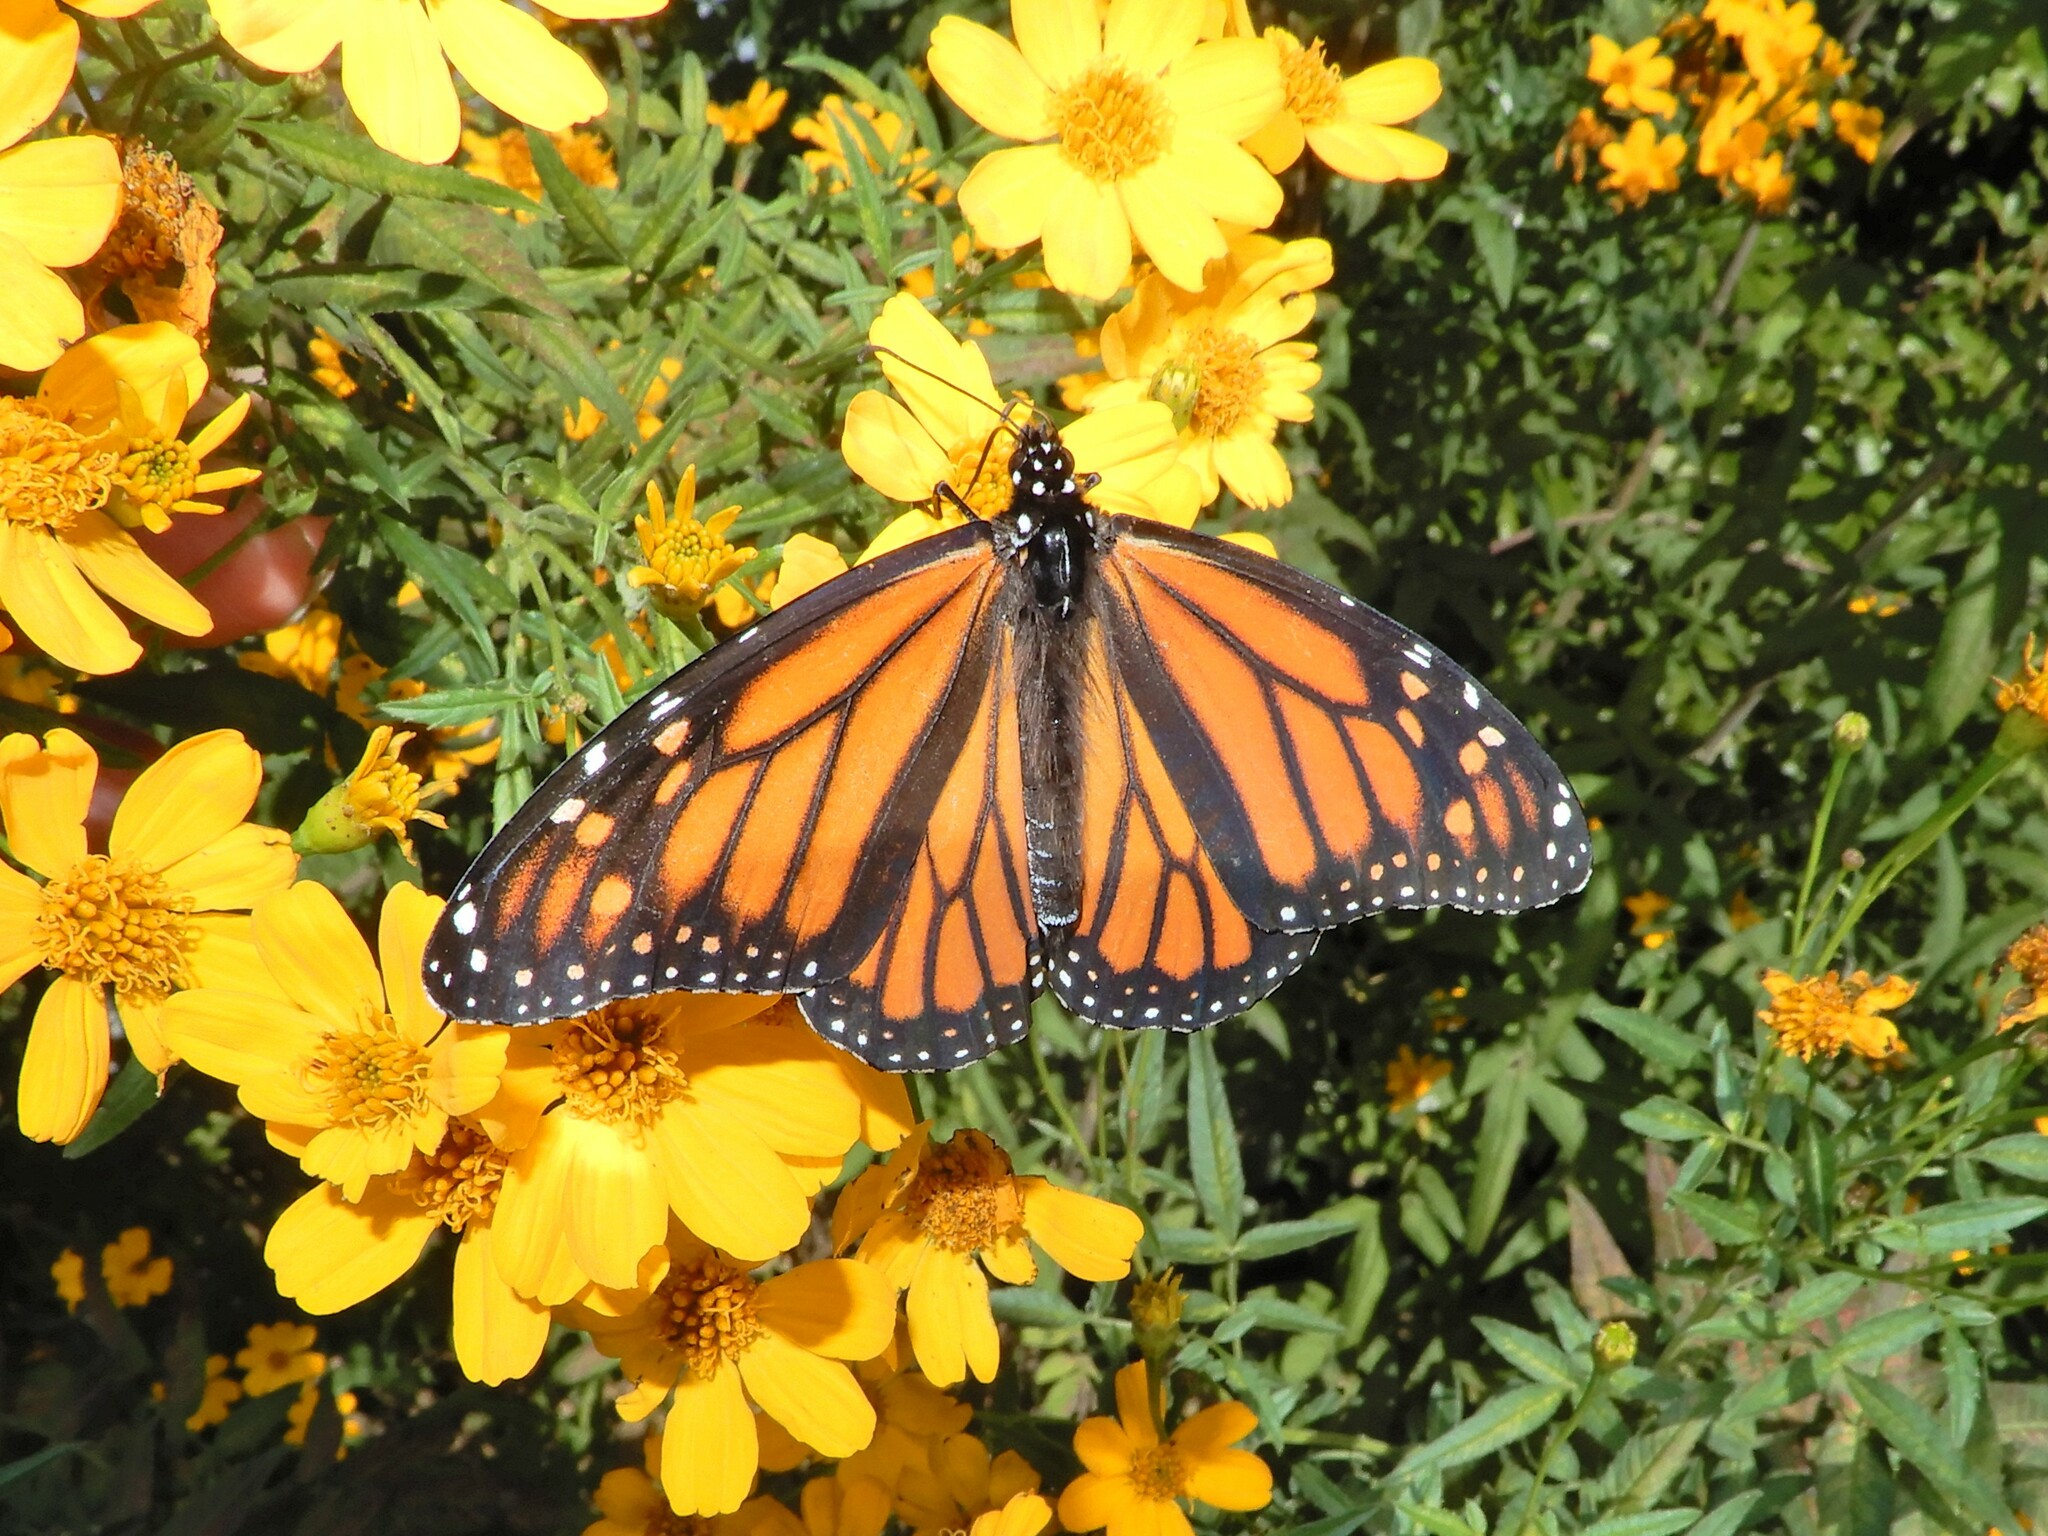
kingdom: Animalia
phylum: Arthropoda
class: Insecta
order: Lepidoptera
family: Nymphalidae
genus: Danaus
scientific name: Danaus plexippus
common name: Monarch
